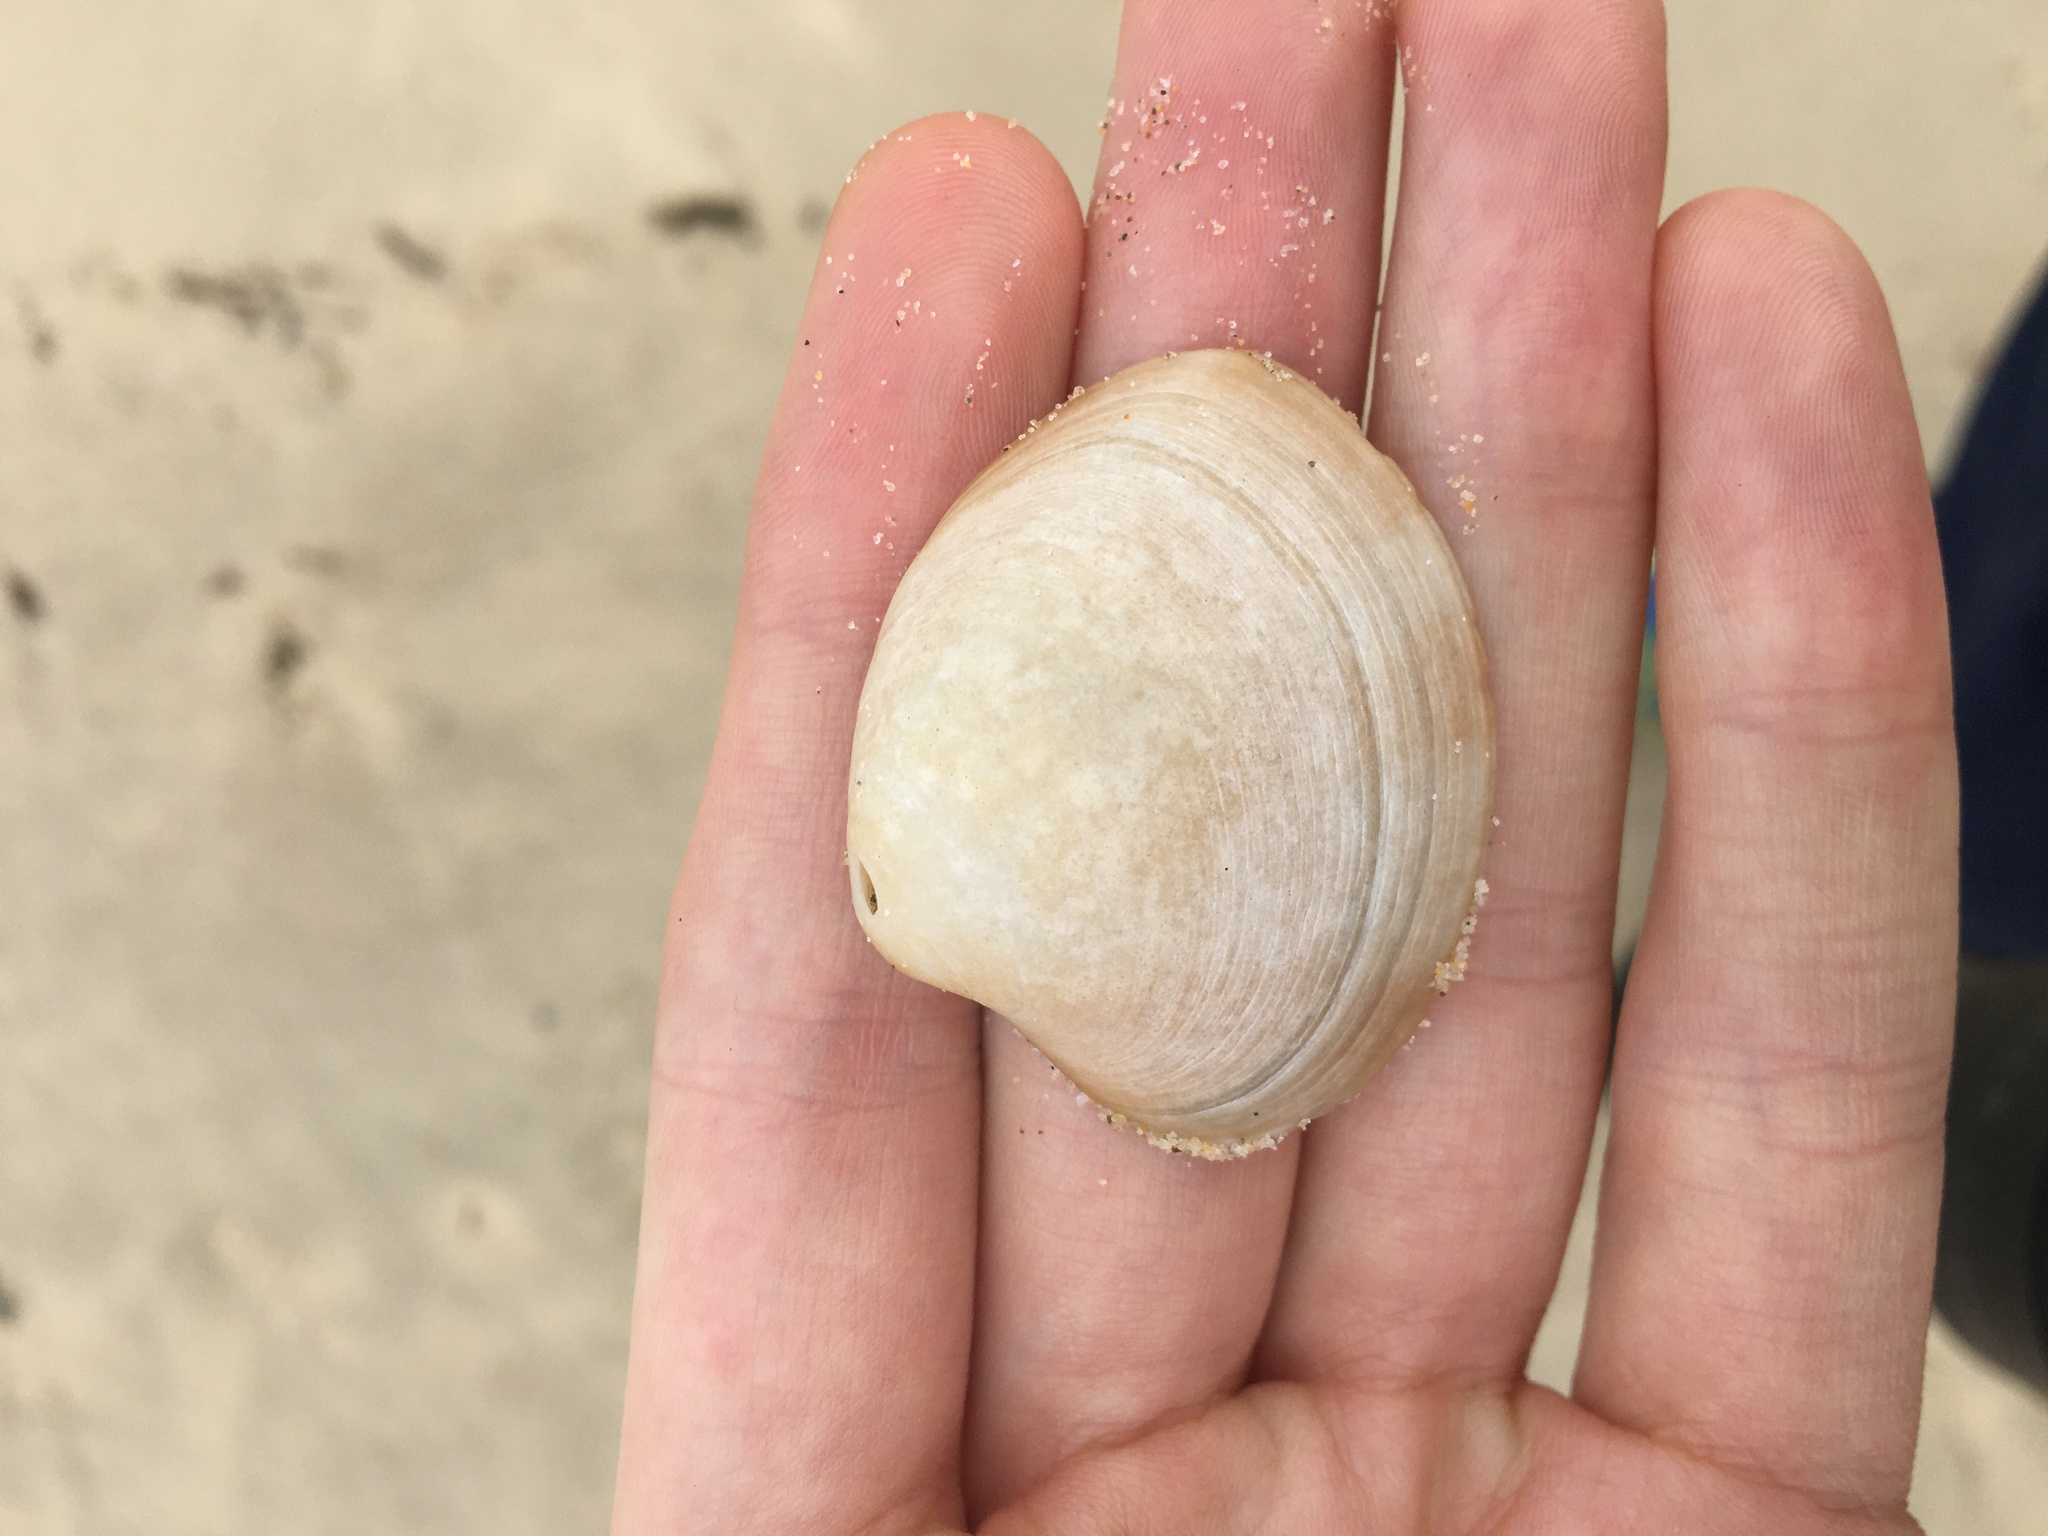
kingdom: Animalia
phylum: Mollusca
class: Bivalvia
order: Venerida
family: Veneridae
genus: Bassina
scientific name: Bassina pachyphylla
